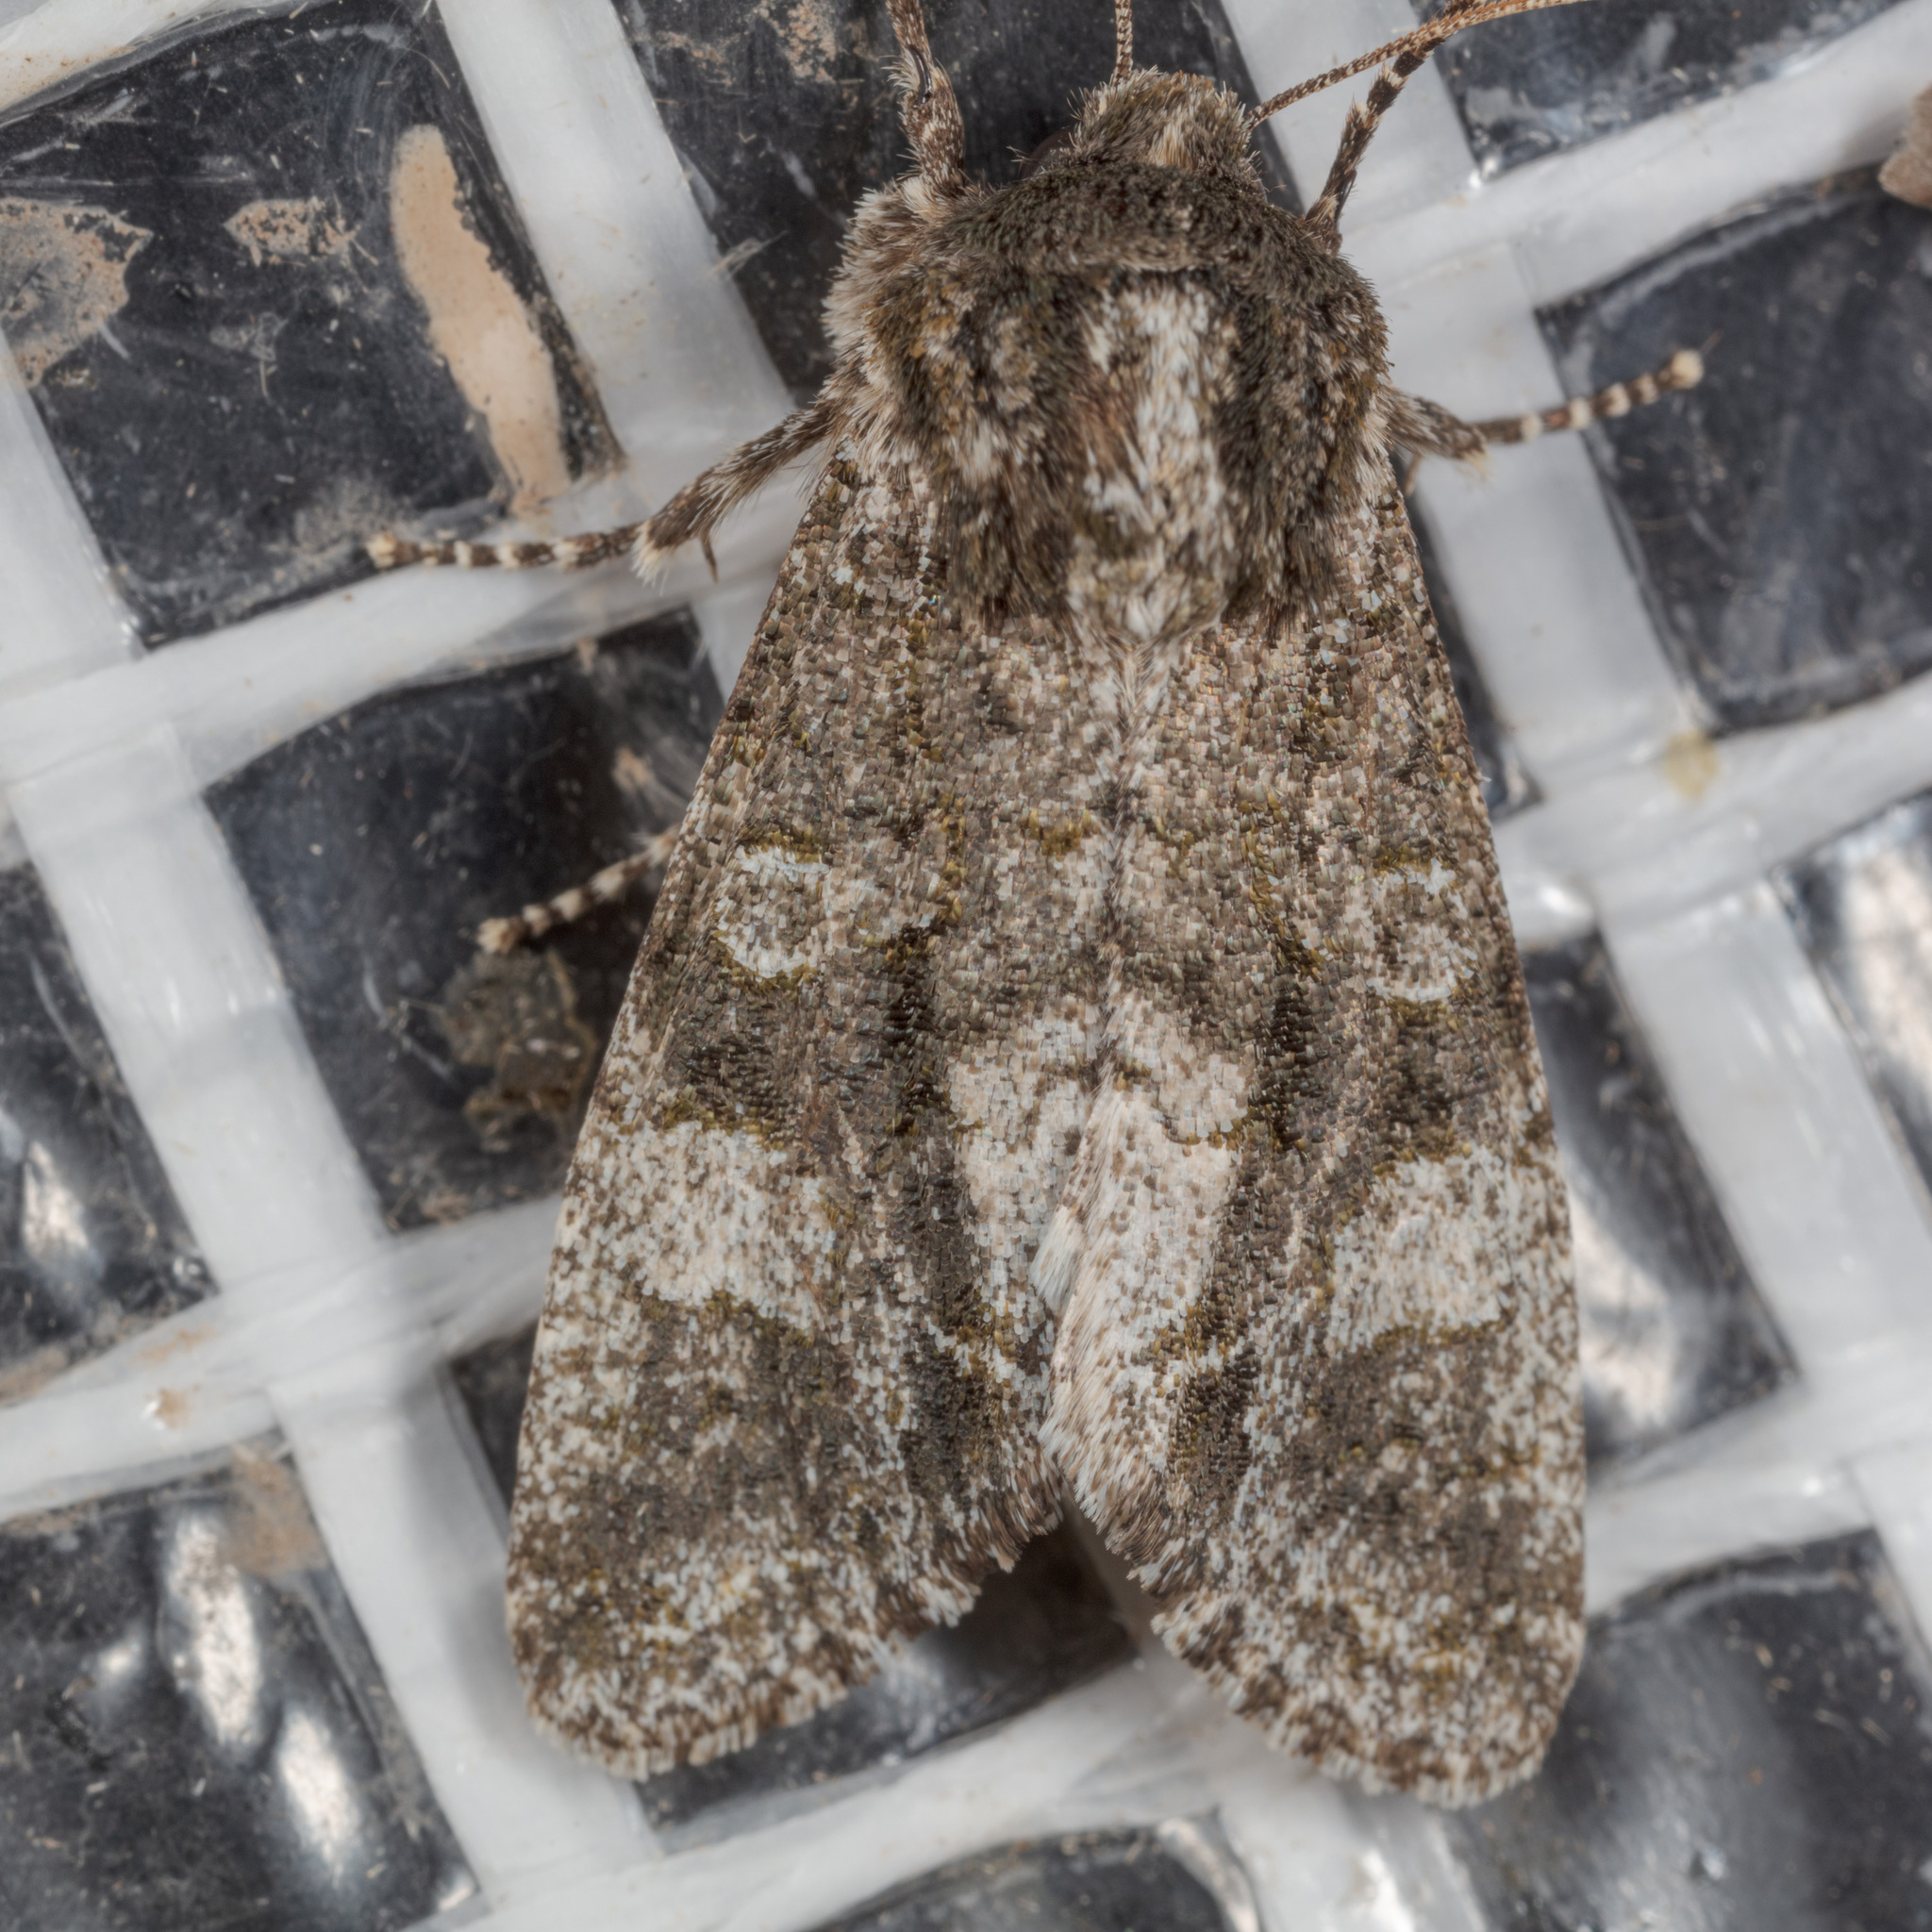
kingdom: Animalia
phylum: Arthropoda
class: Insecta
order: Lepidoptera
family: Noctuidae
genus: Psaphida
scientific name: Psaphida grotei
